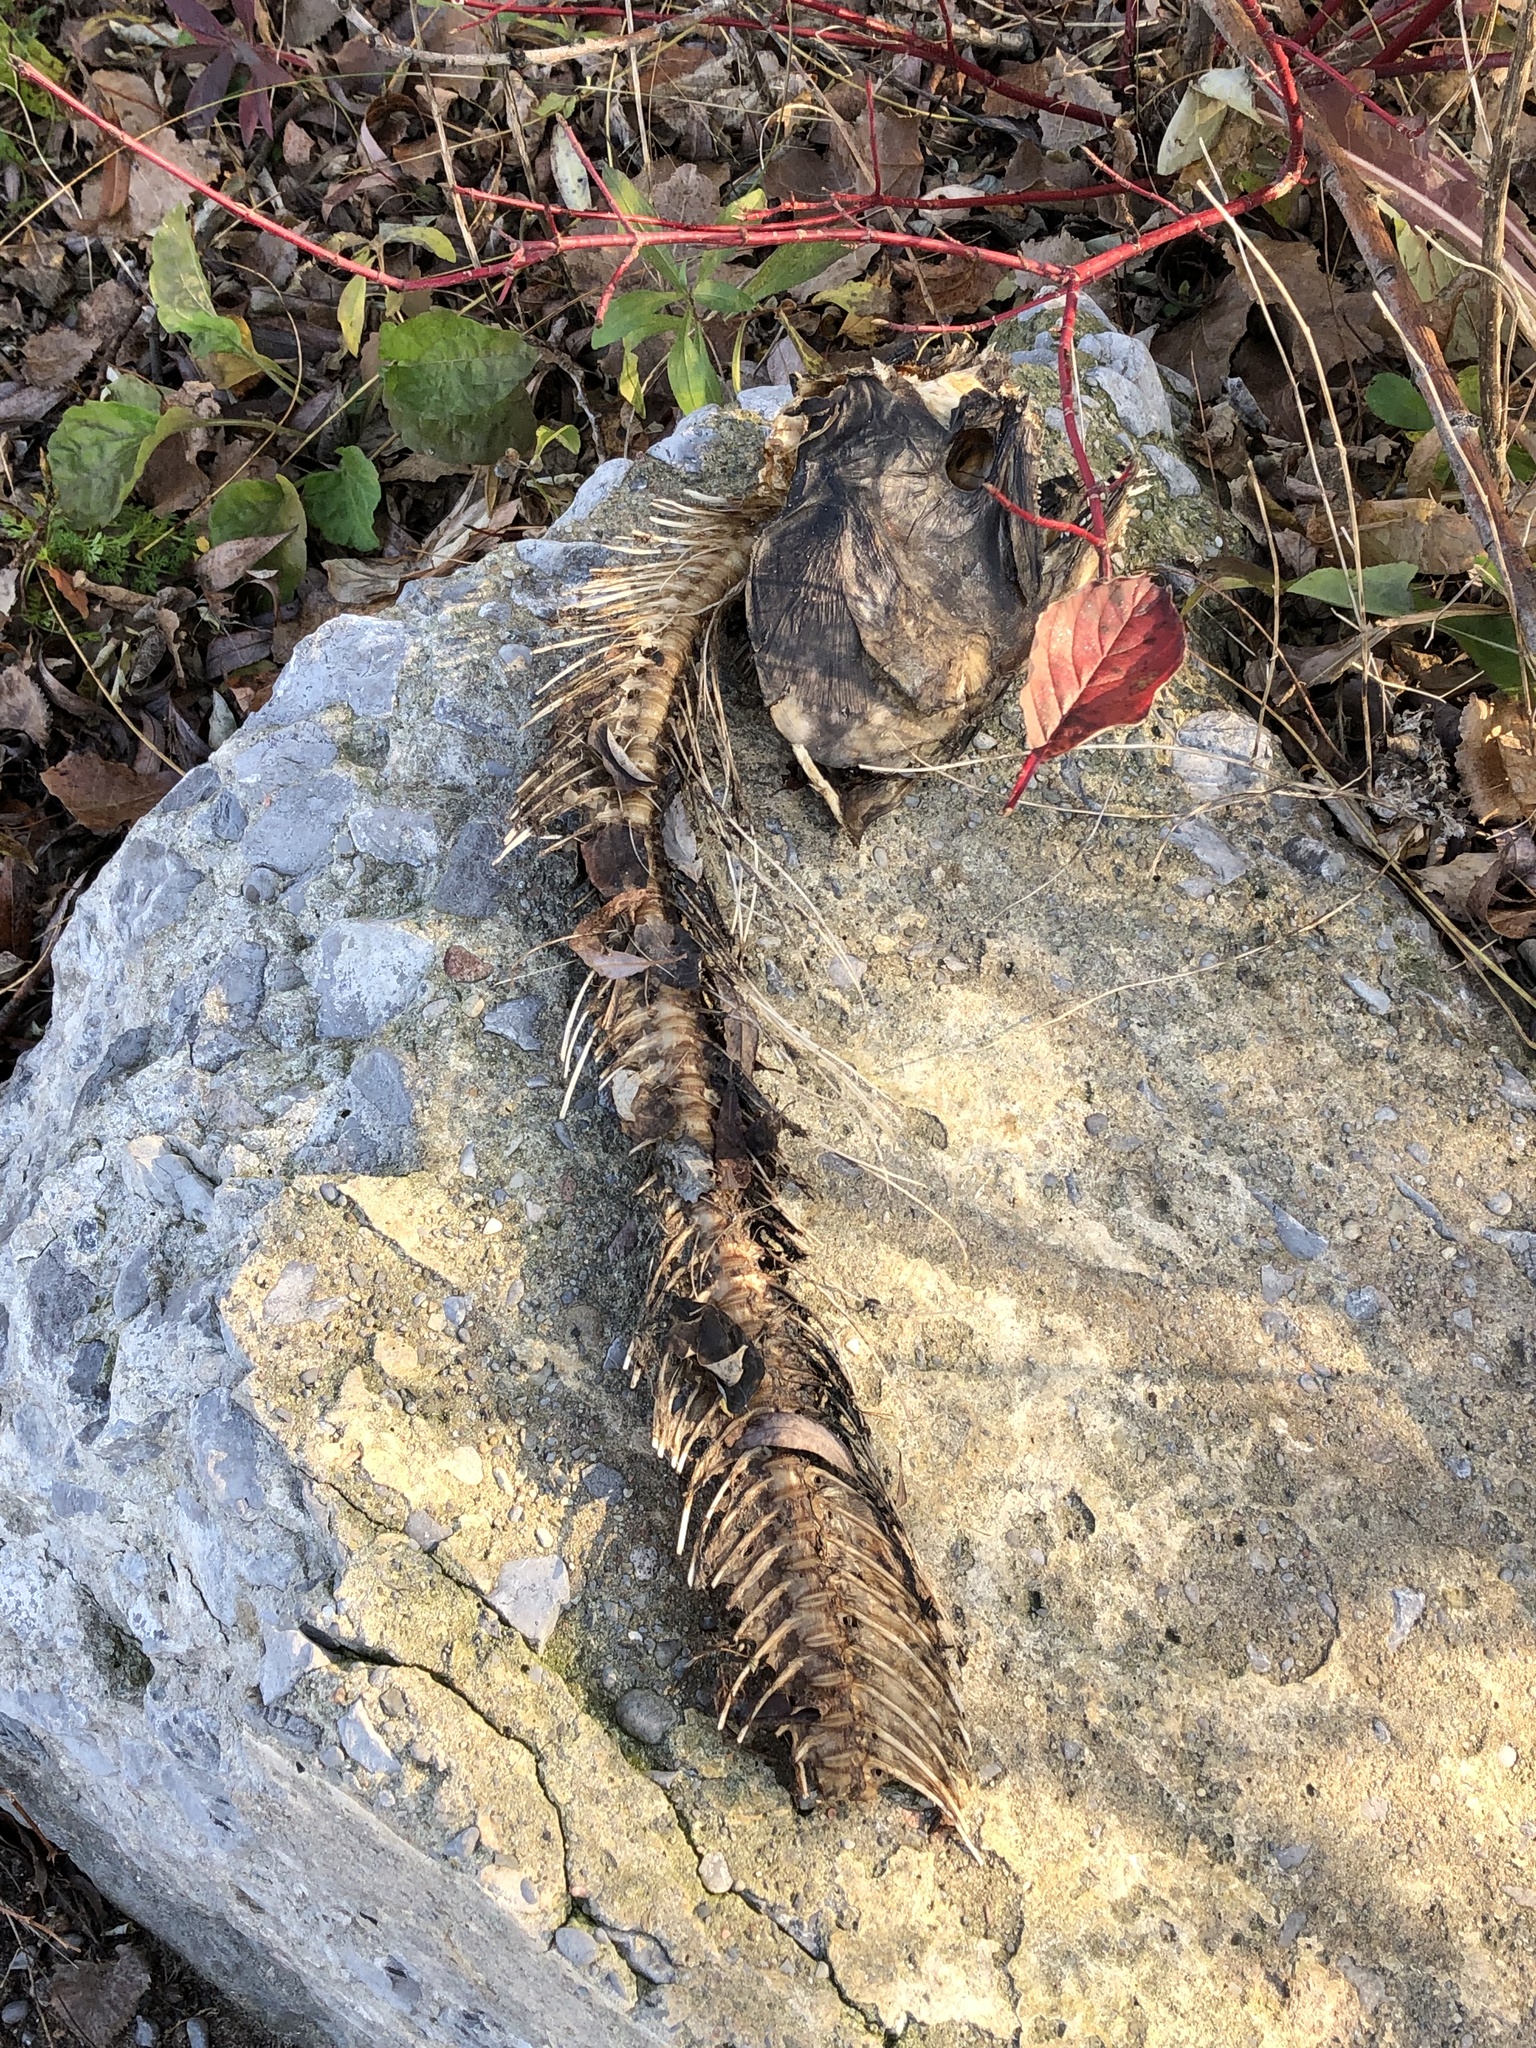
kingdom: Animalia
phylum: Chordata
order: Salmoniformes
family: Salmonidae
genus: Oncorhynchus
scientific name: Oncorhynchus tshawytscha
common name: Chinook salmon
